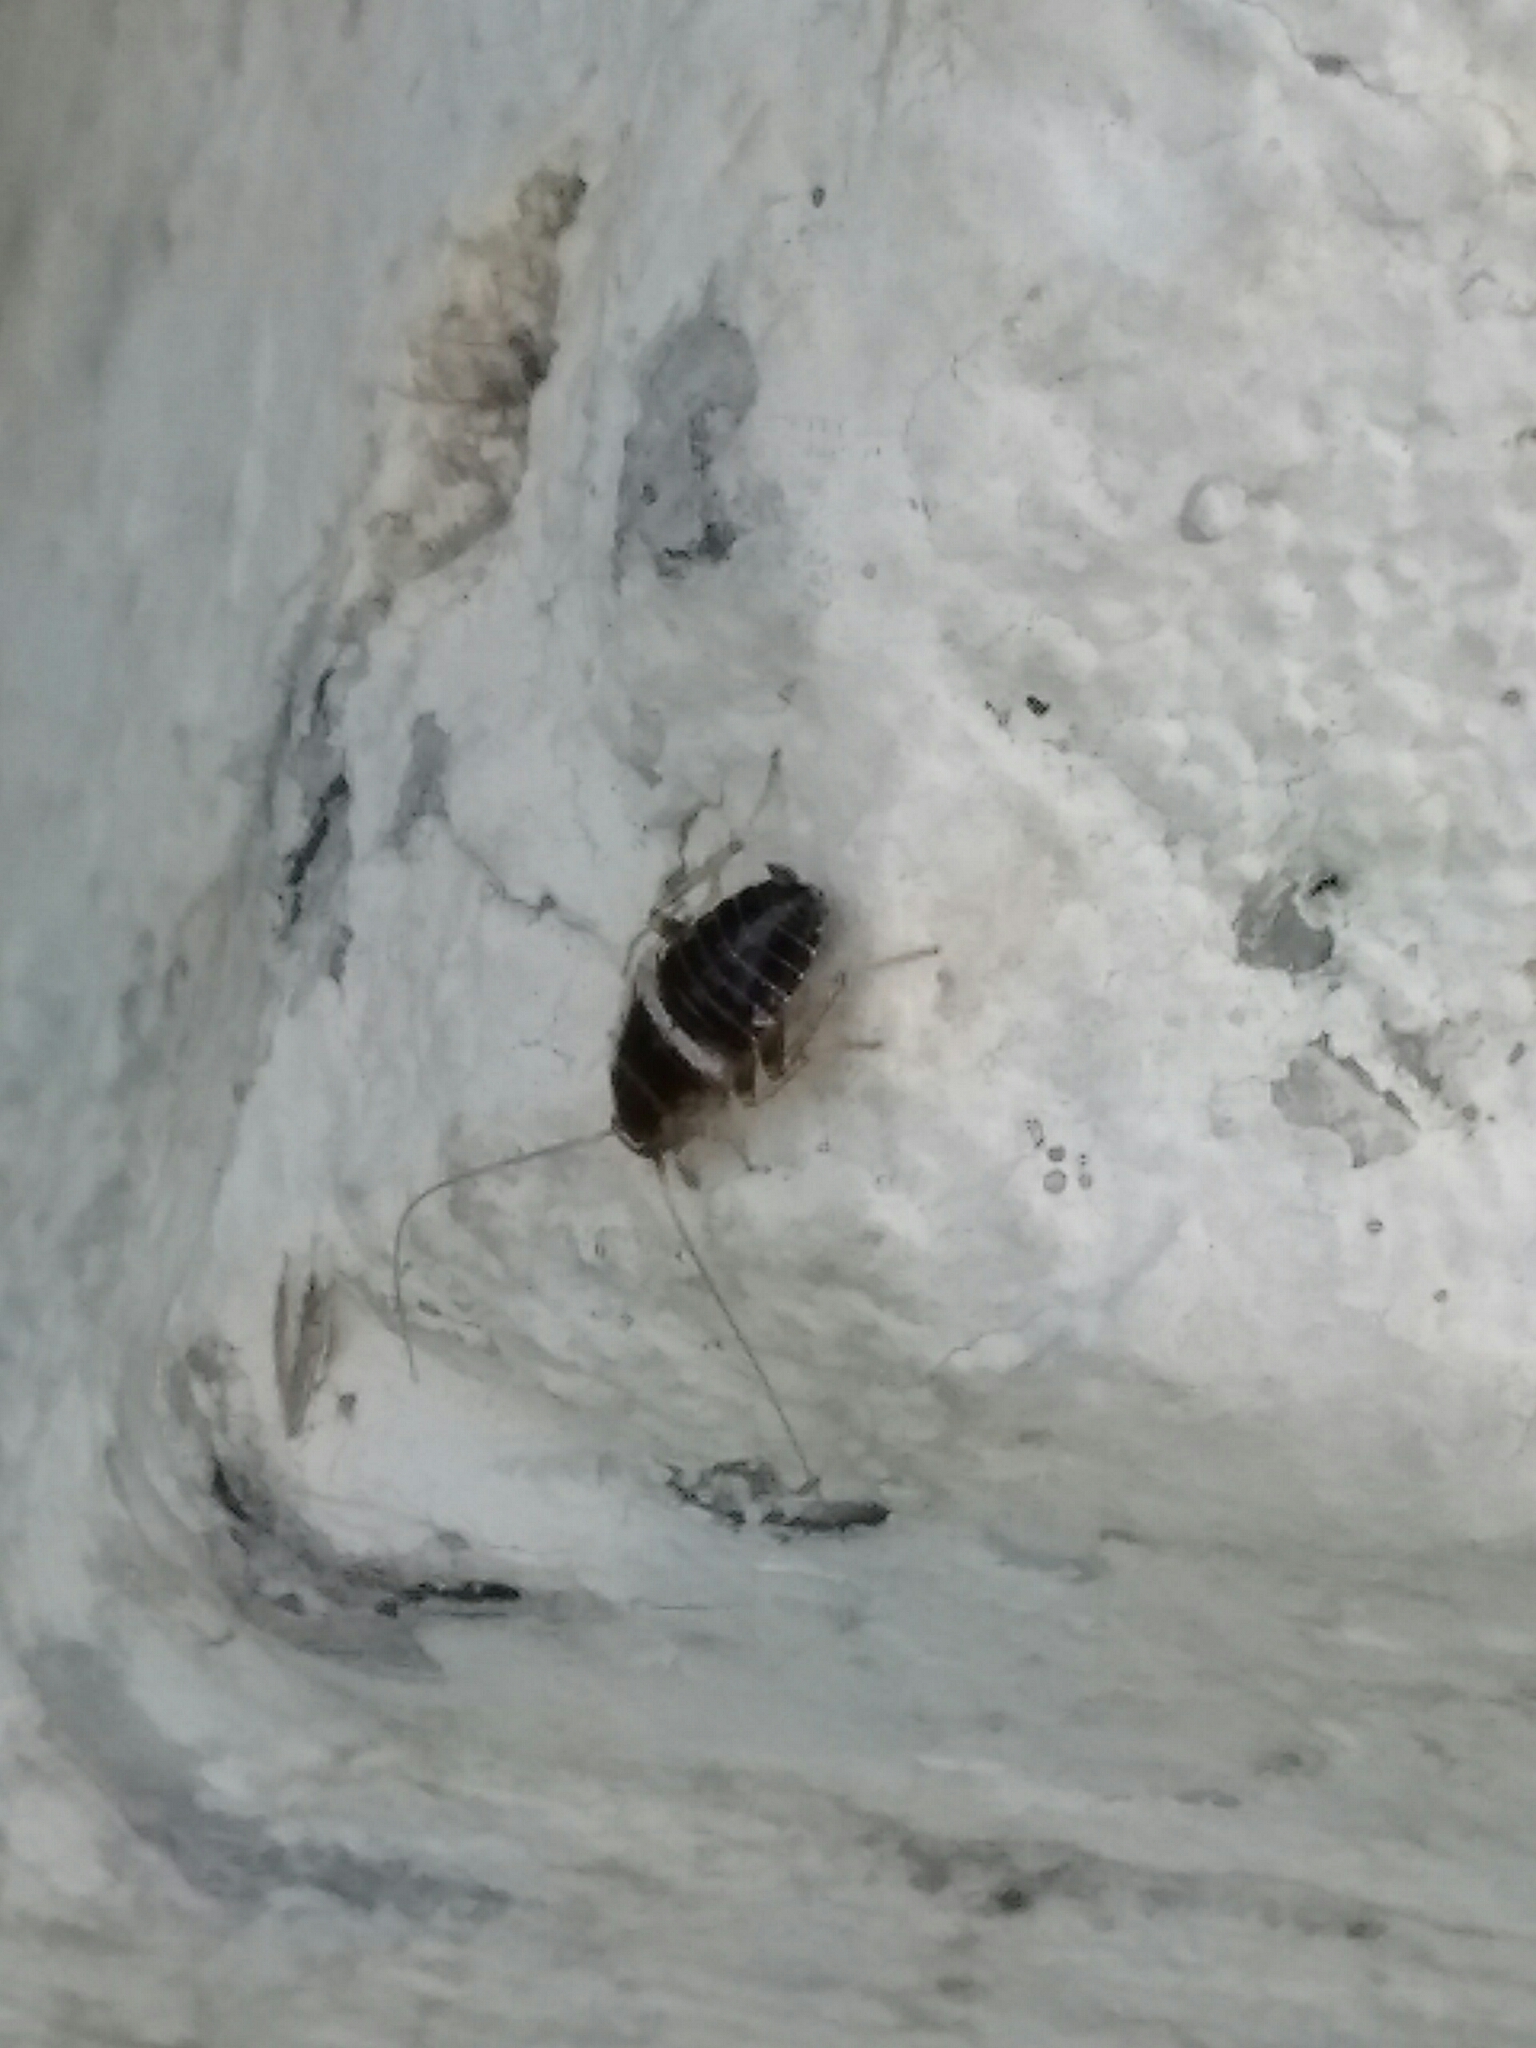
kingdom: Animalia
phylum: Arthropoda
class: Insecta
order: Blattodea
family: Ectobiidae
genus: Planuncus
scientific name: Planuncus vinzi
